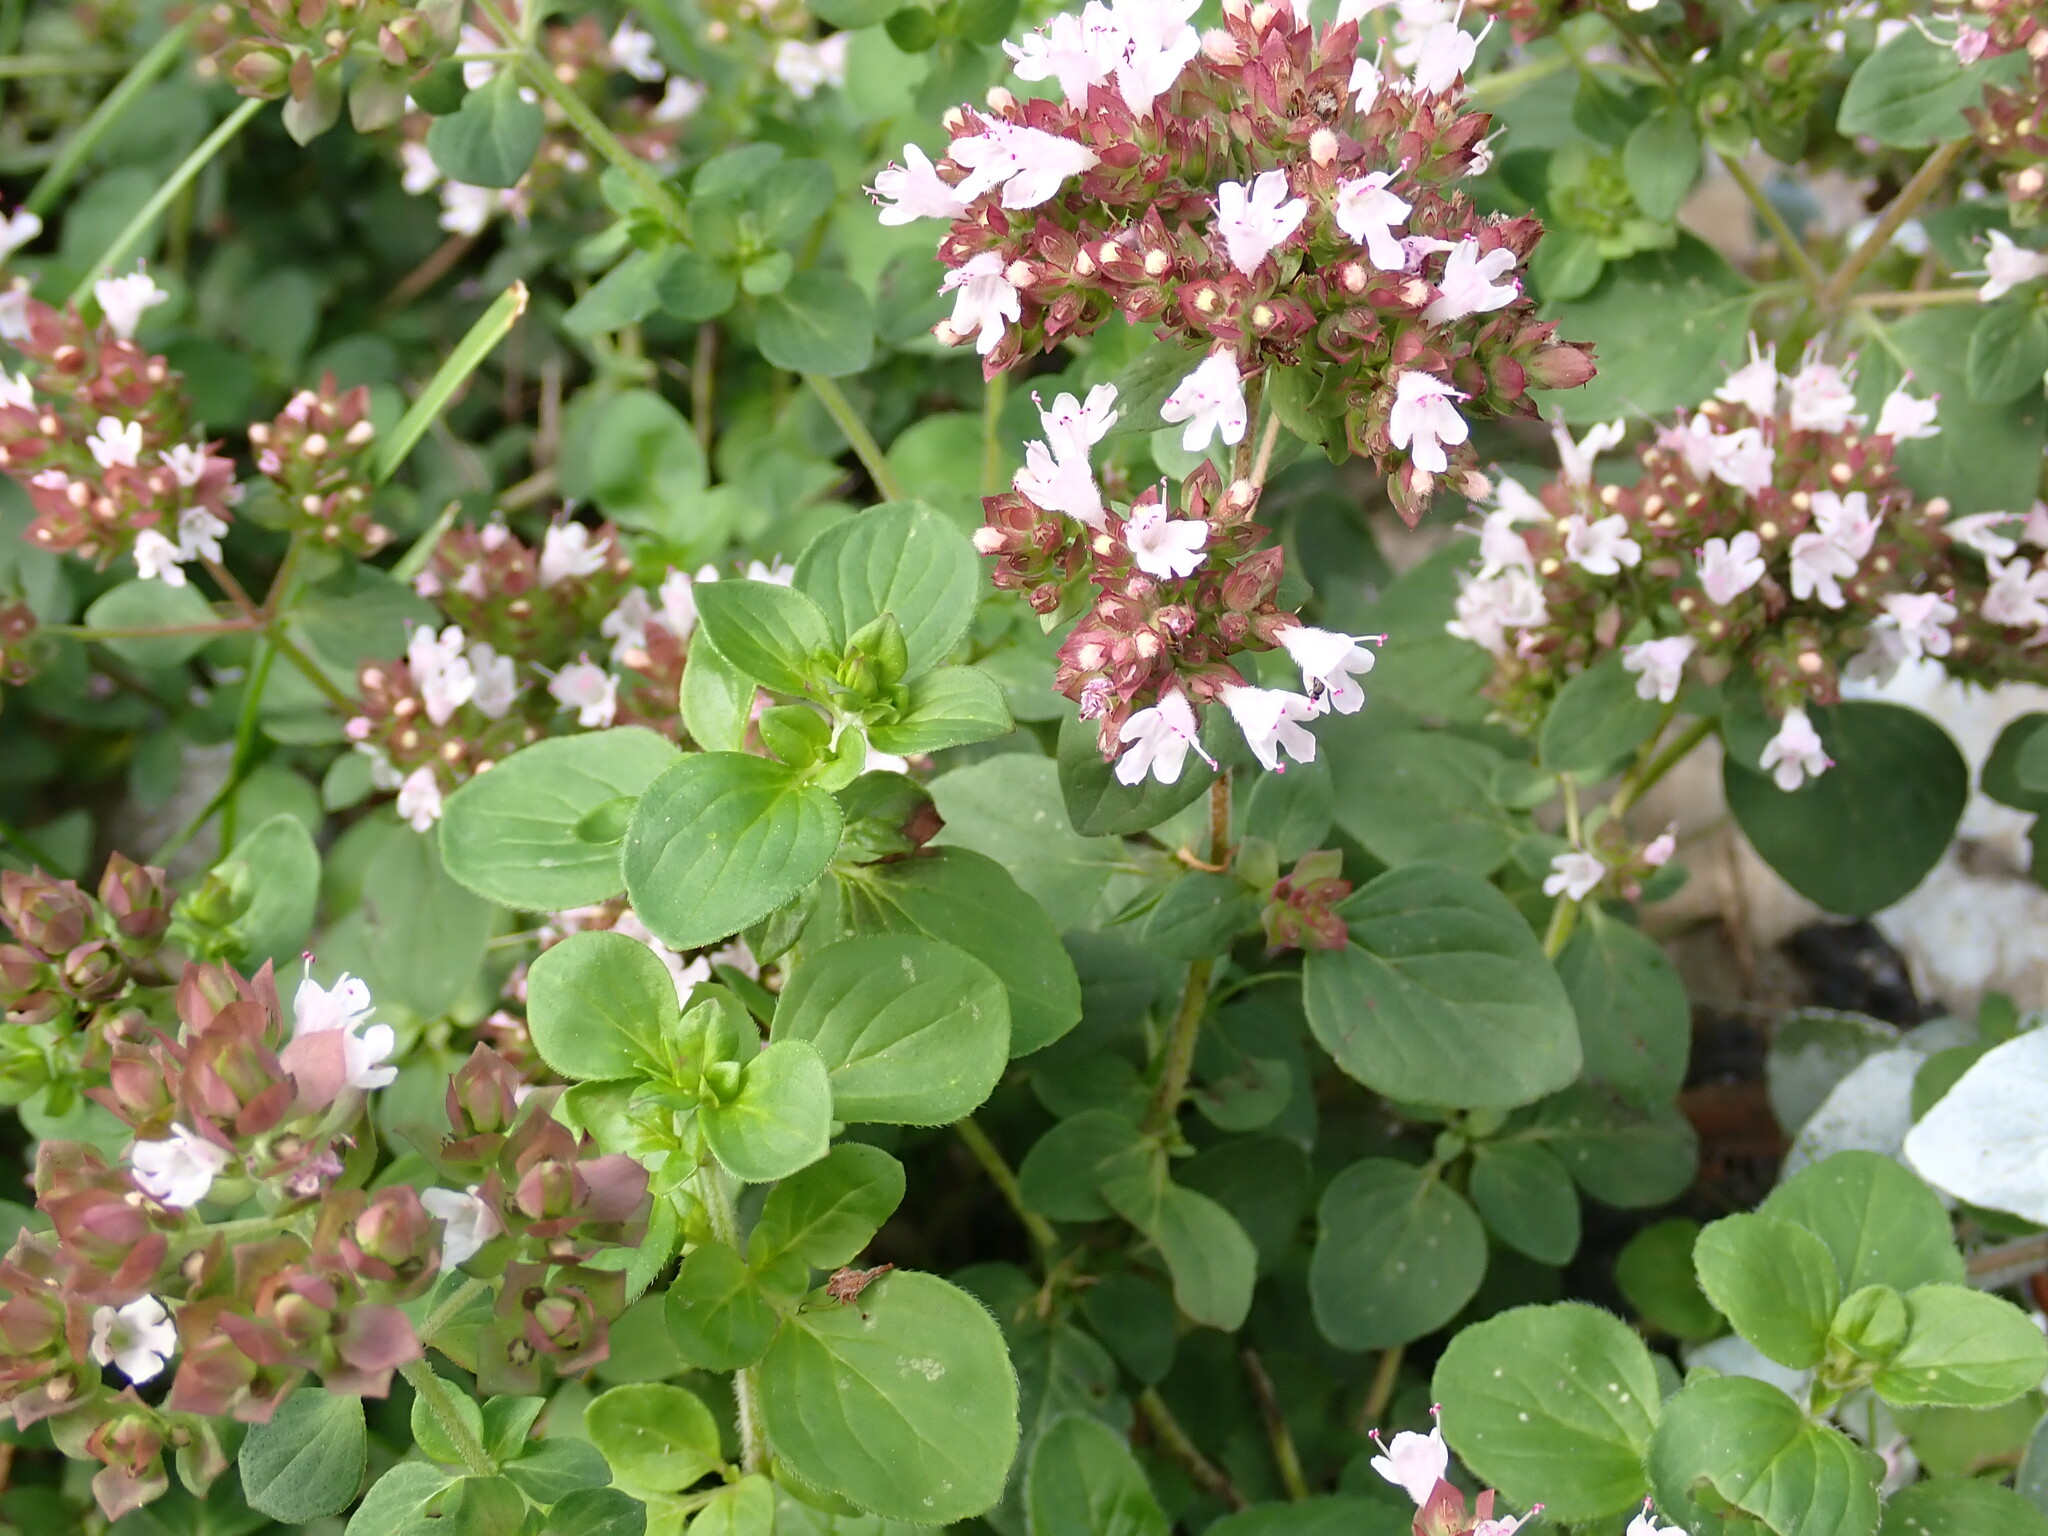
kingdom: Plantae
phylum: Tracheophyta
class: Magnoliopsida
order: Lamiales
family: Lamiaceae
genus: Origanum
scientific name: Origanum vulgare
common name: Wild marjoram
